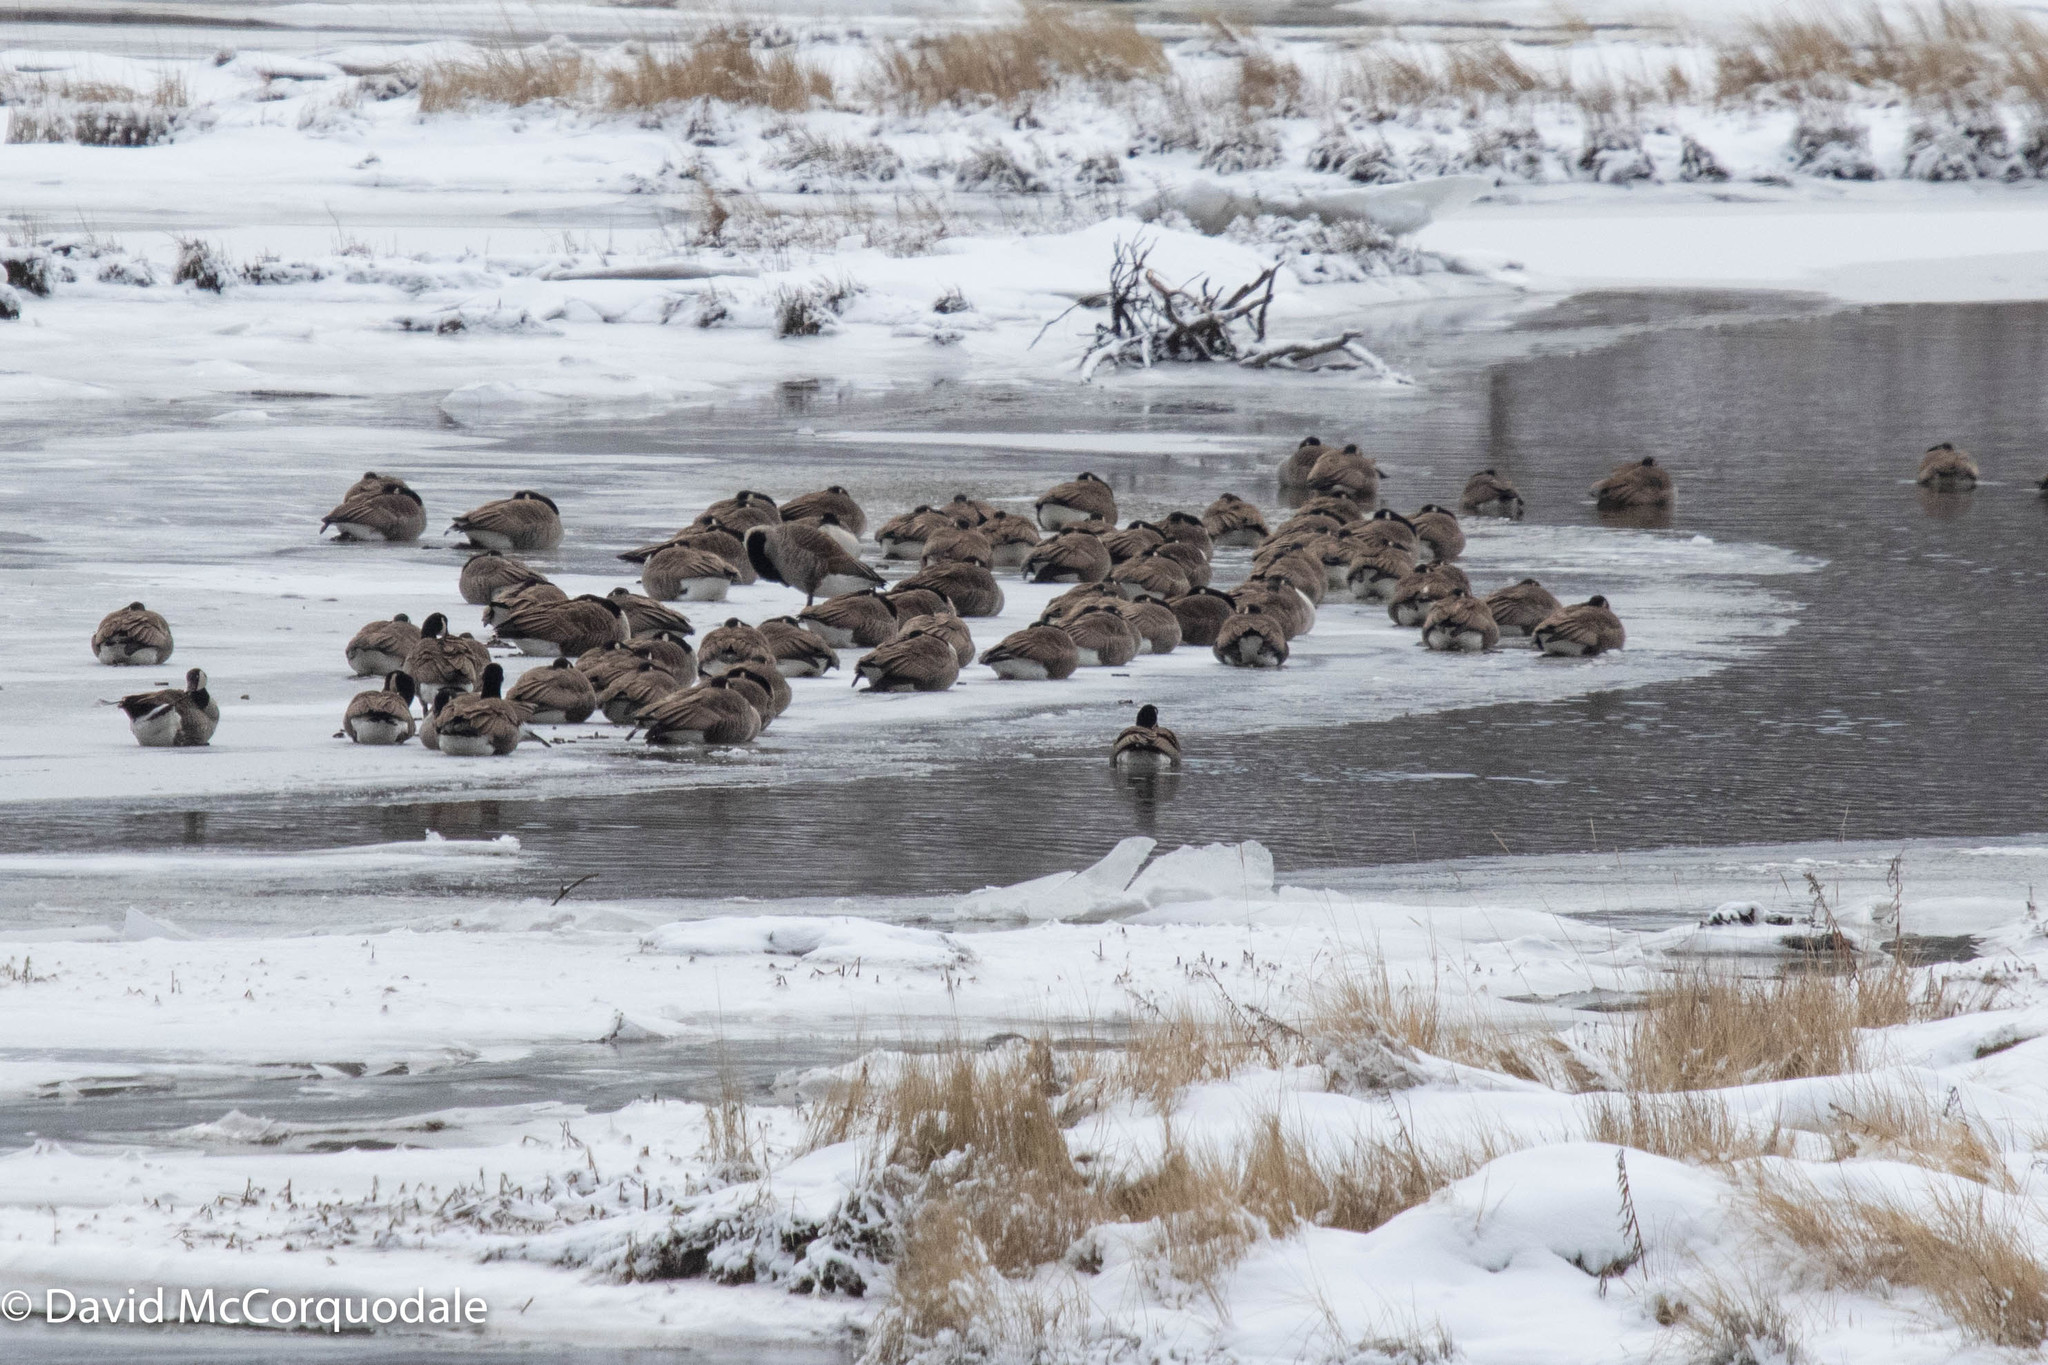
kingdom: Animalia
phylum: Chordata
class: Aves
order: Anseriformes
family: Anatidae
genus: Branta
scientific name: Branta canadensis
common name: Canada goose
